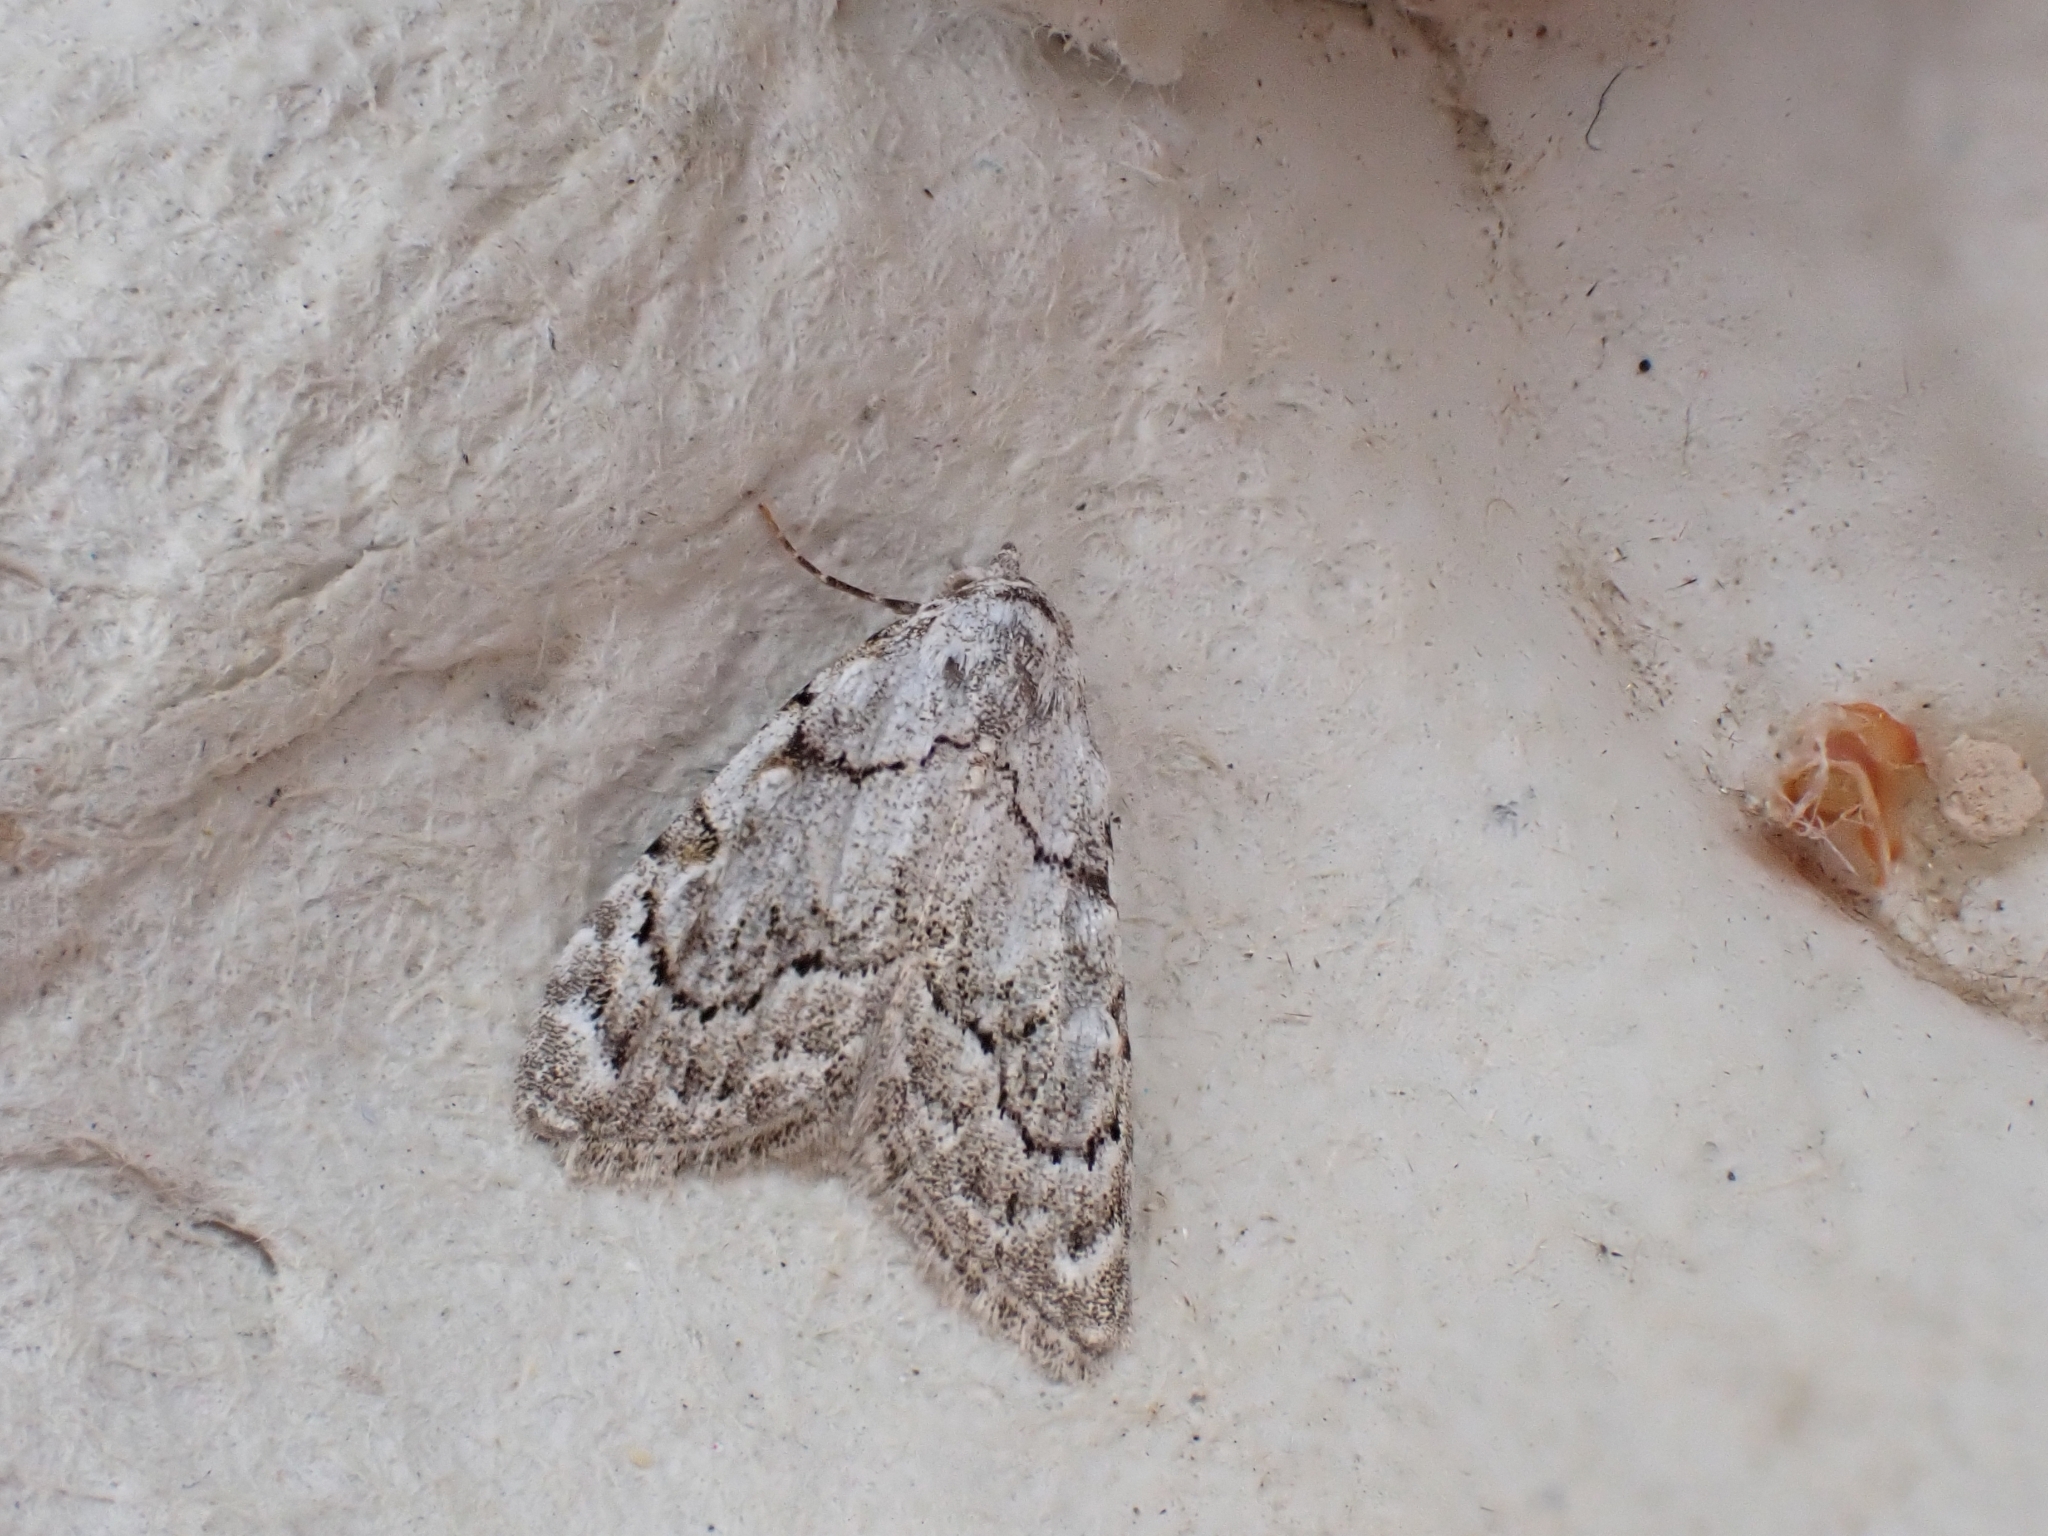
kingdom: Animalia
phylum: Arthropoda
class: Insecta
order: Lepidoptera
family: Nolidae
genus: Nola
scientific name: Nola confusalis
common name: Least black arches
